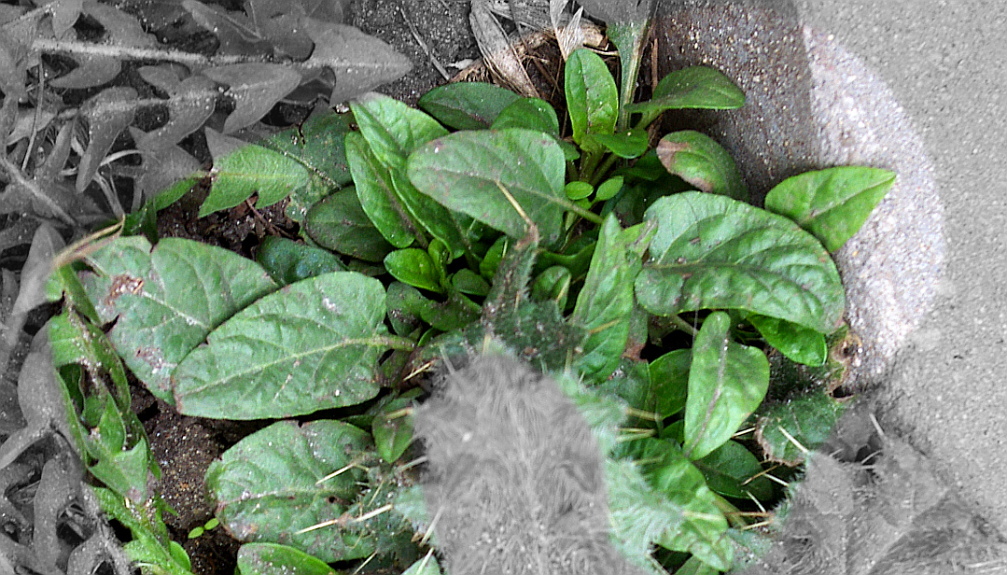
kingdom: Plantae
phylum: Tracheophyta
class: Magnoliopsida
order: Lamiales
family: Lamiaceae
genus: Prunella
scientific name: Prunella vulgaris
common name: Heal-all
